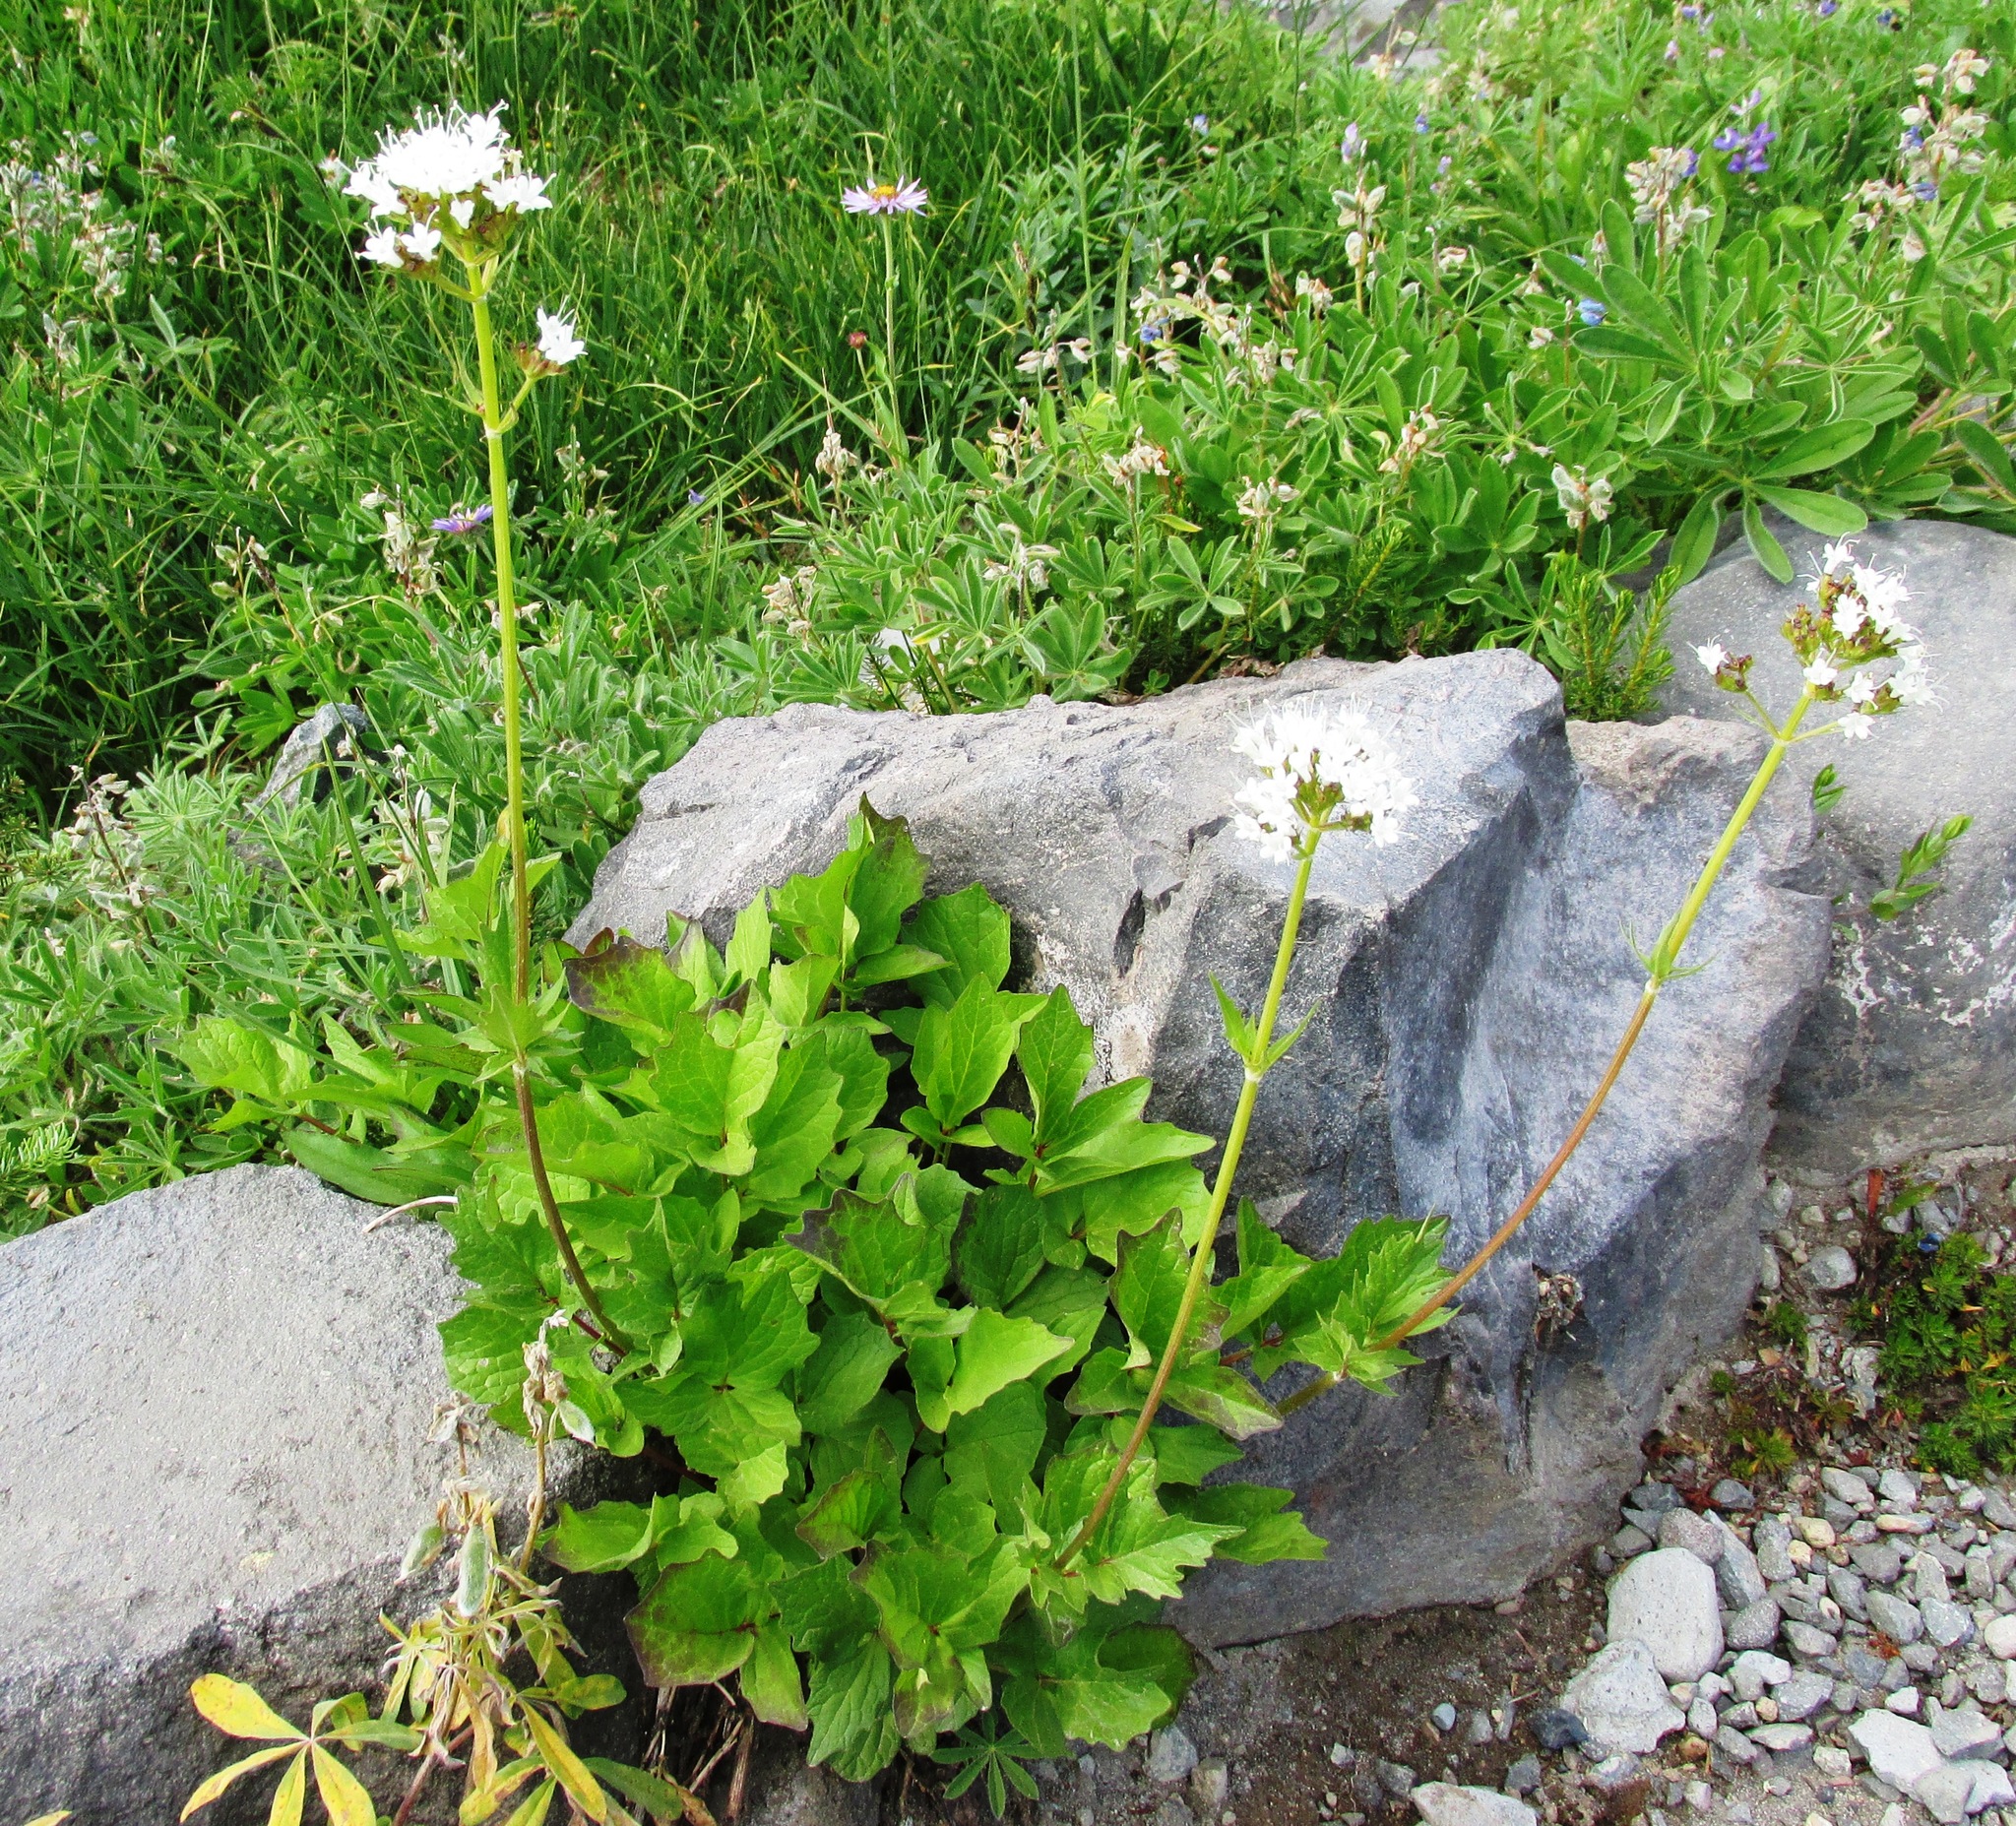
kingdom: Plantae
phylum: Tracheophyta
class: Magnoliopsida
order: Dipsacales
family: Caprifoliaceae
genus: Valeriana
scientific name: Valeriana sitchensis
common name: Pacific valerian
